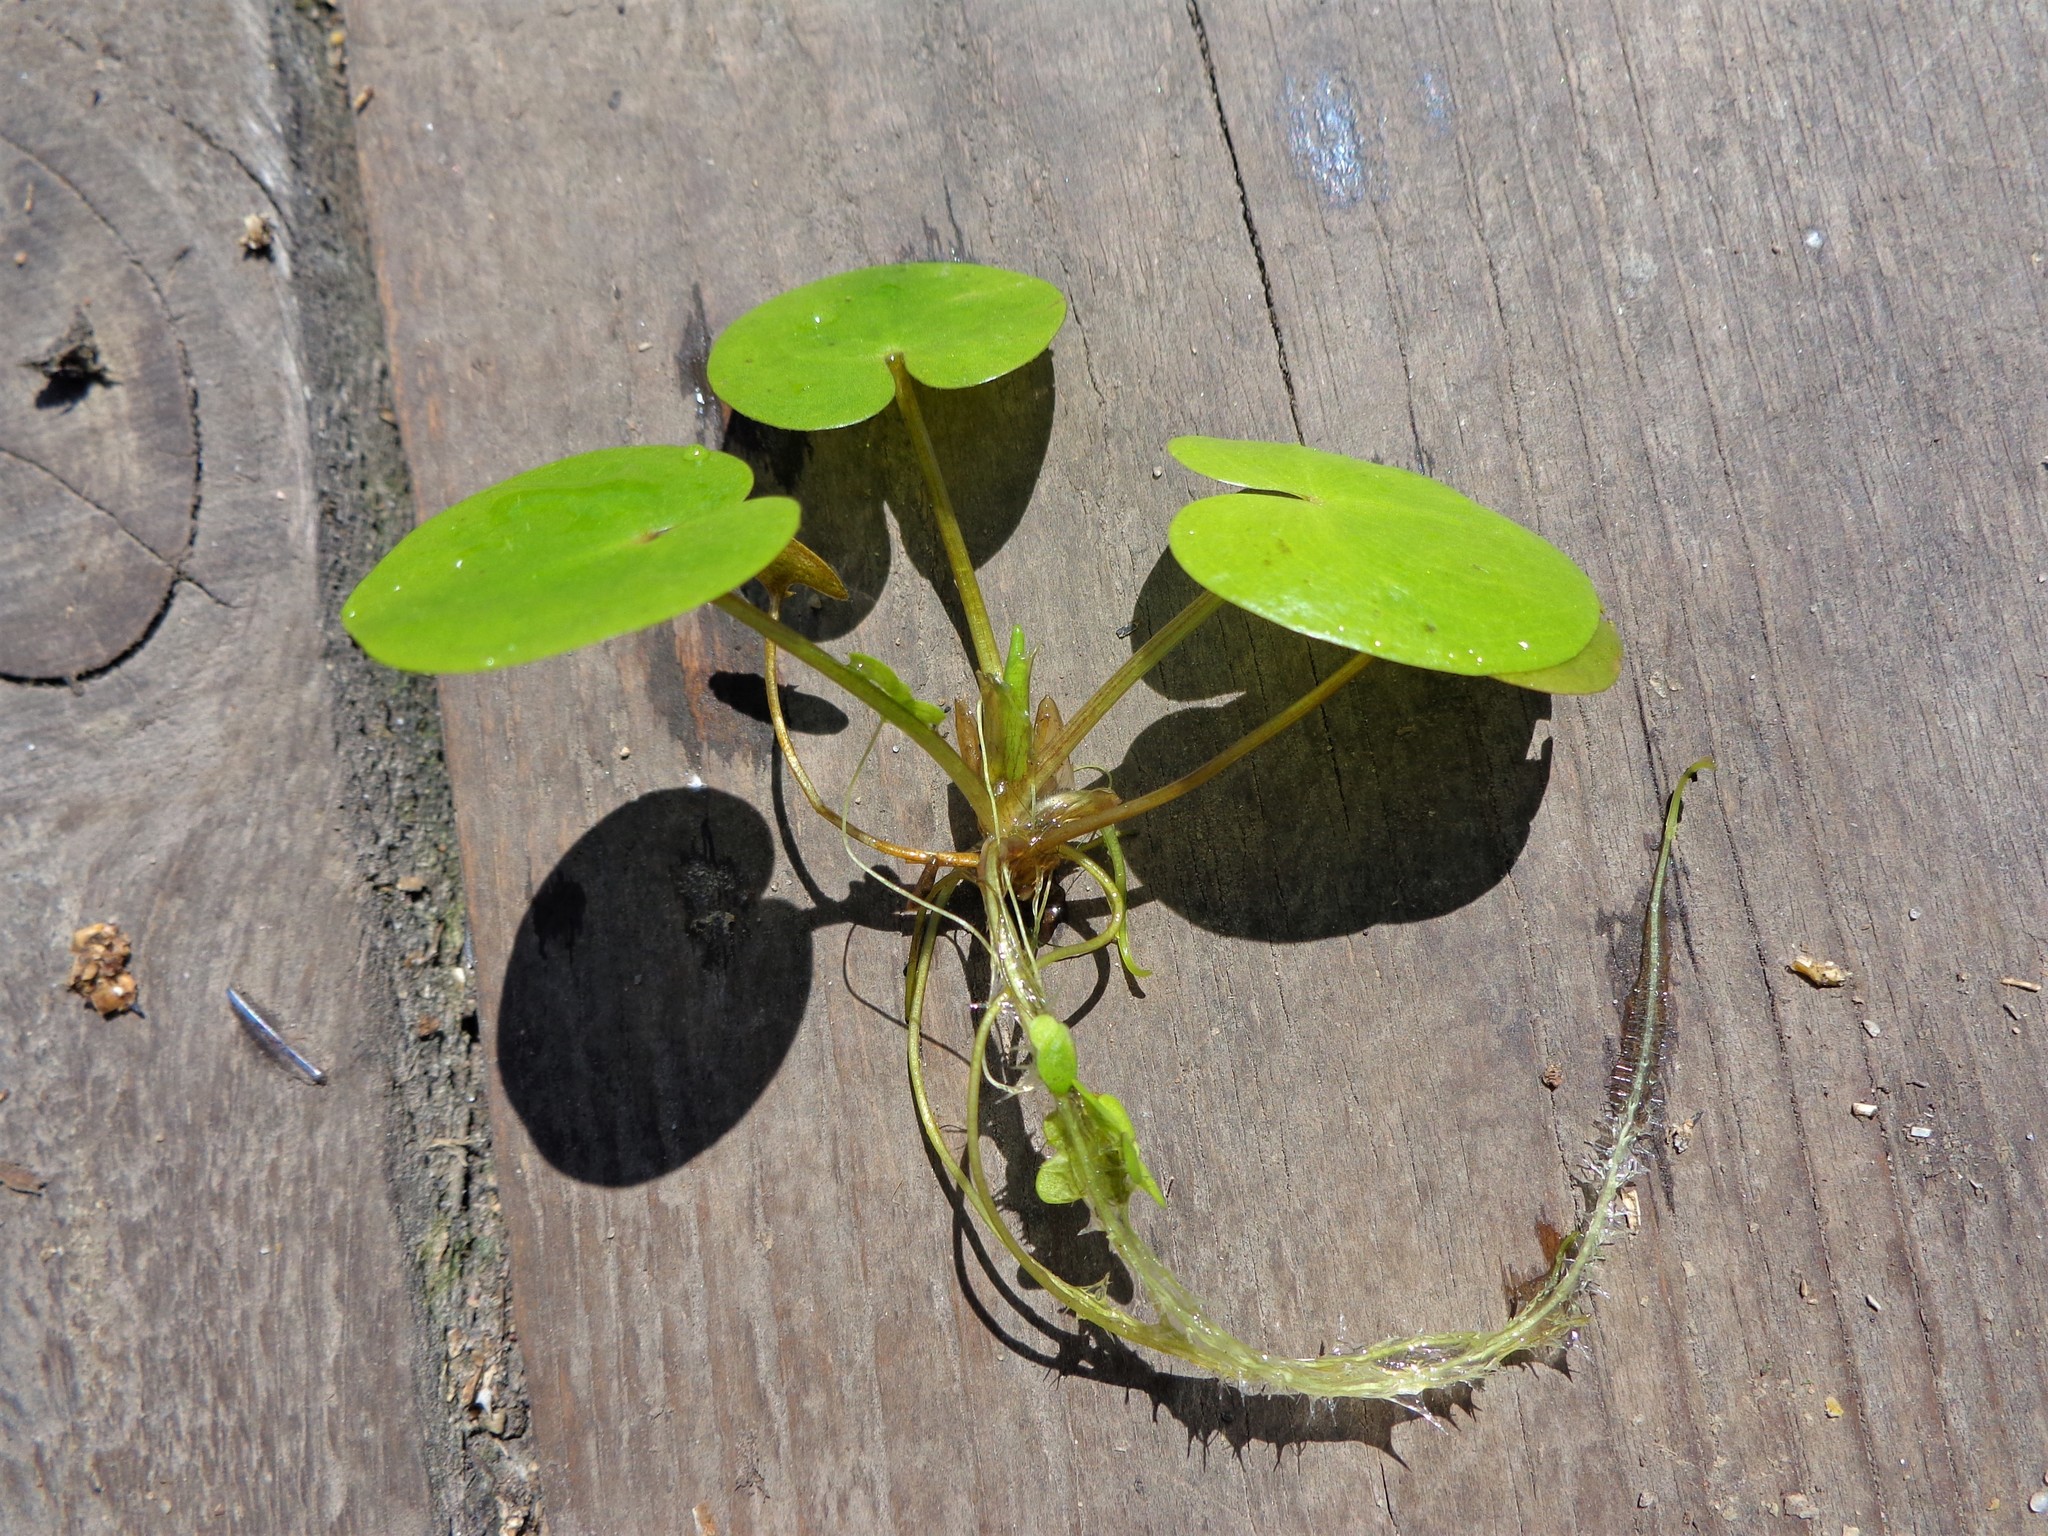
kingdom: Plantae
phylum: Tracheophyta
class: Liliopsida
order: Alismatales
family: Hydrocharitaceae
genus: Hydrocharis
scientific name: Hydrocharis morsus-ranae
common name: Frogbit
